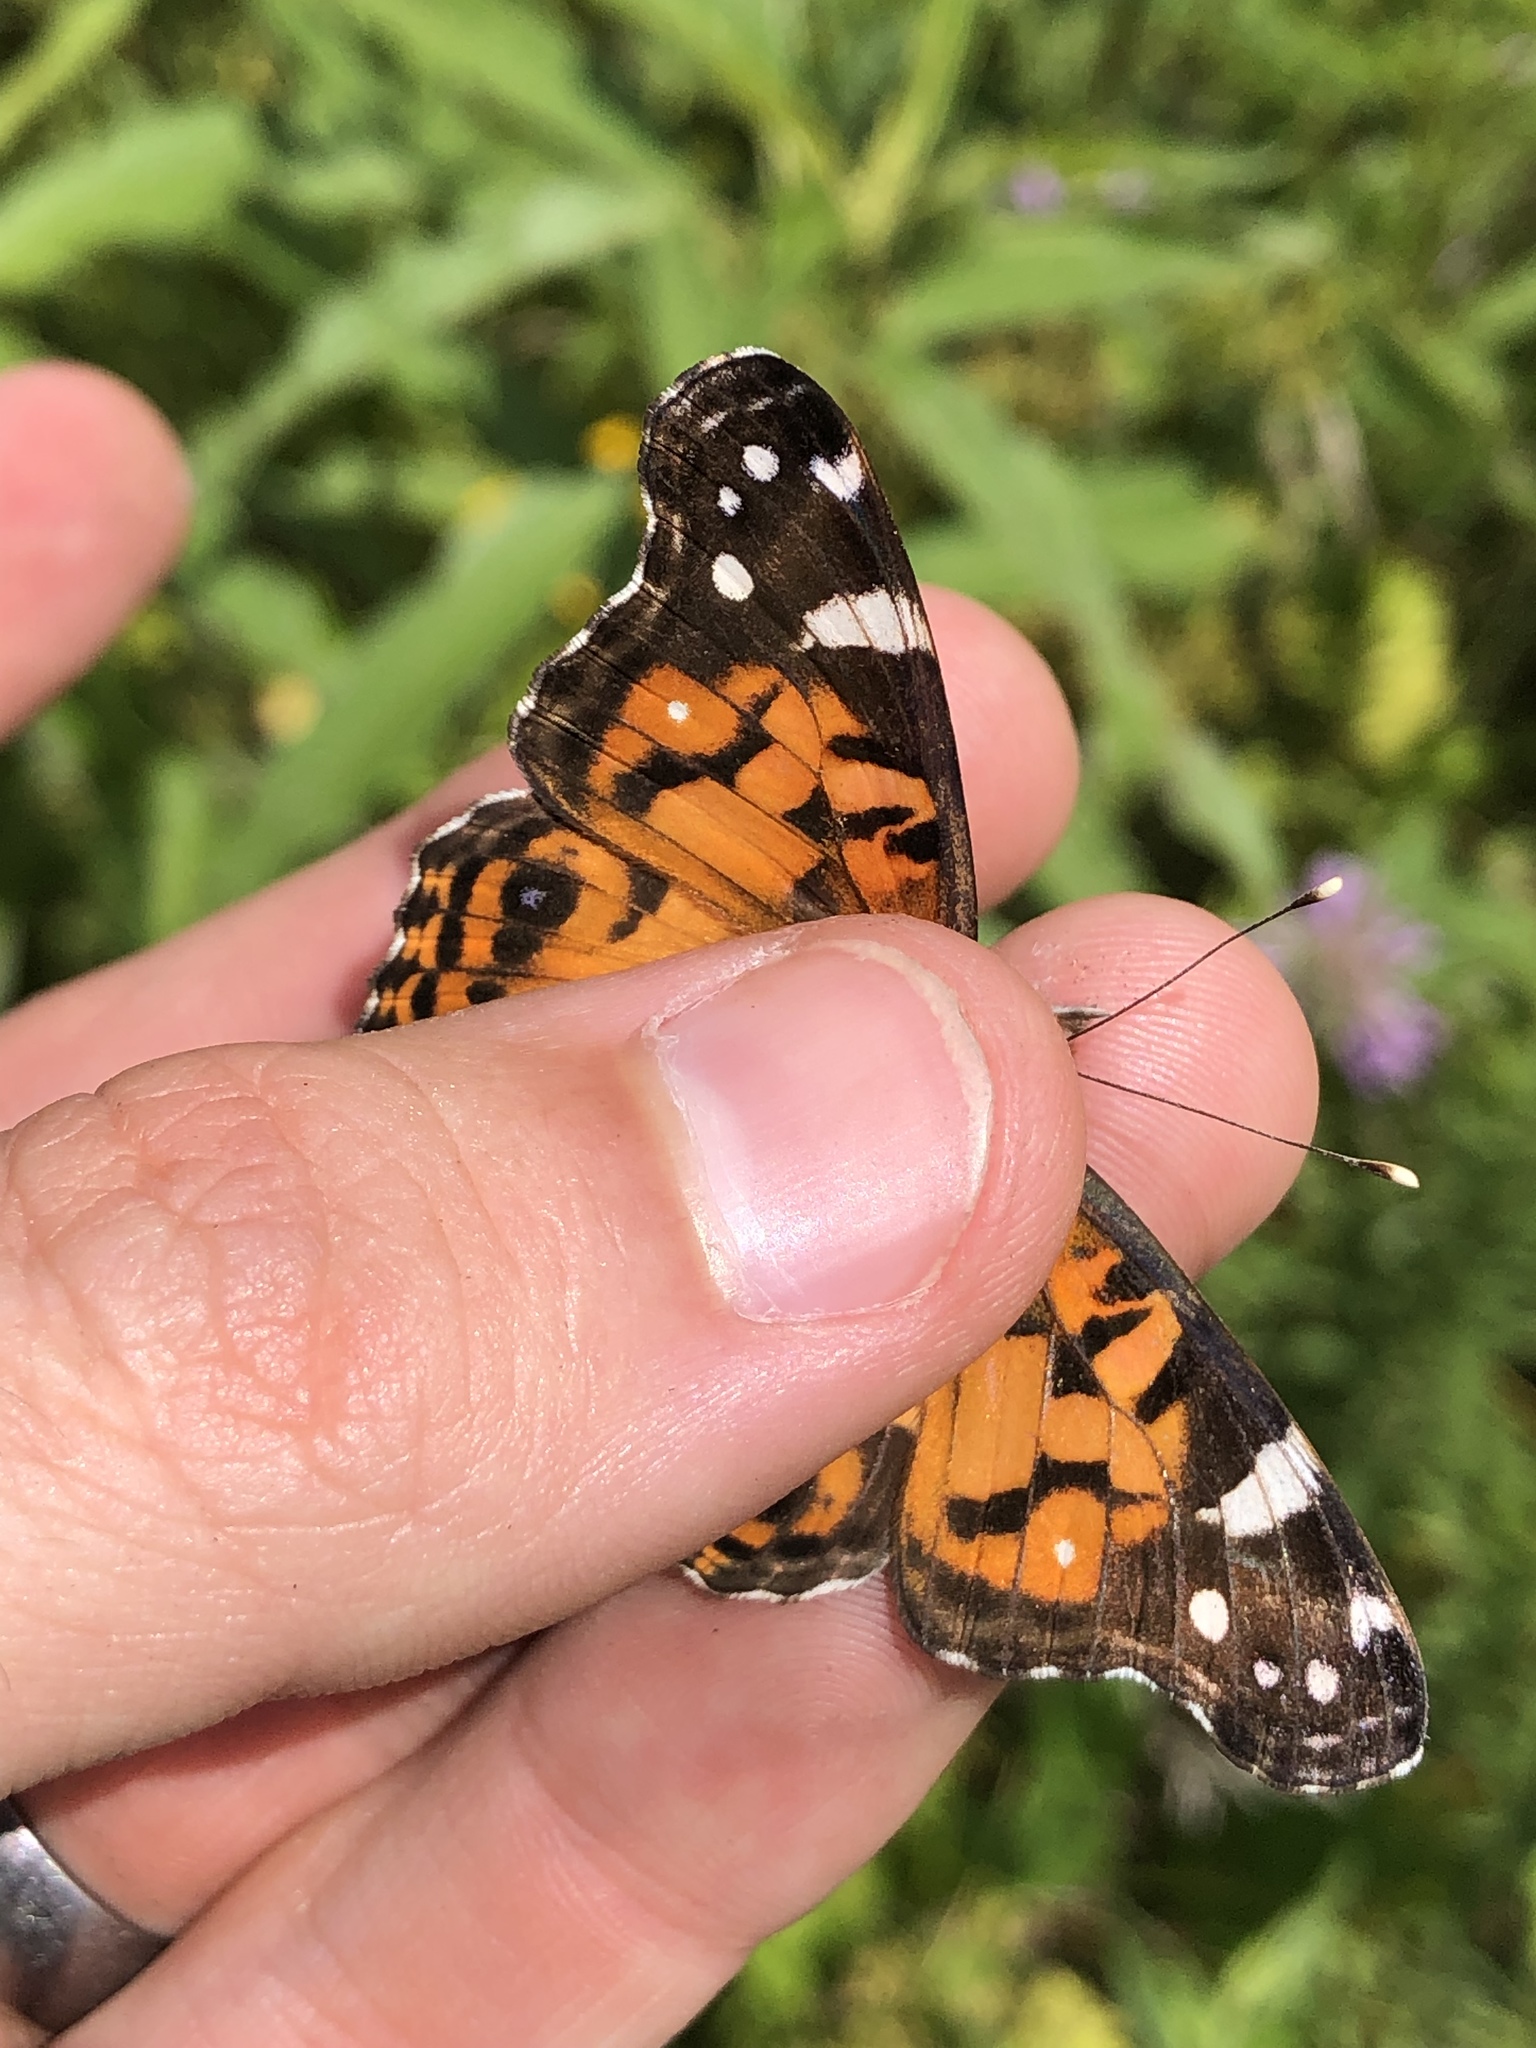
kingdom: Animalia
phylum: Arthropoda
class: Insecta
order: Lepidoptera
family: Nymphalidae
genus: Vanessa
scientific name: Vanessa virginiensis
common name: American lady
